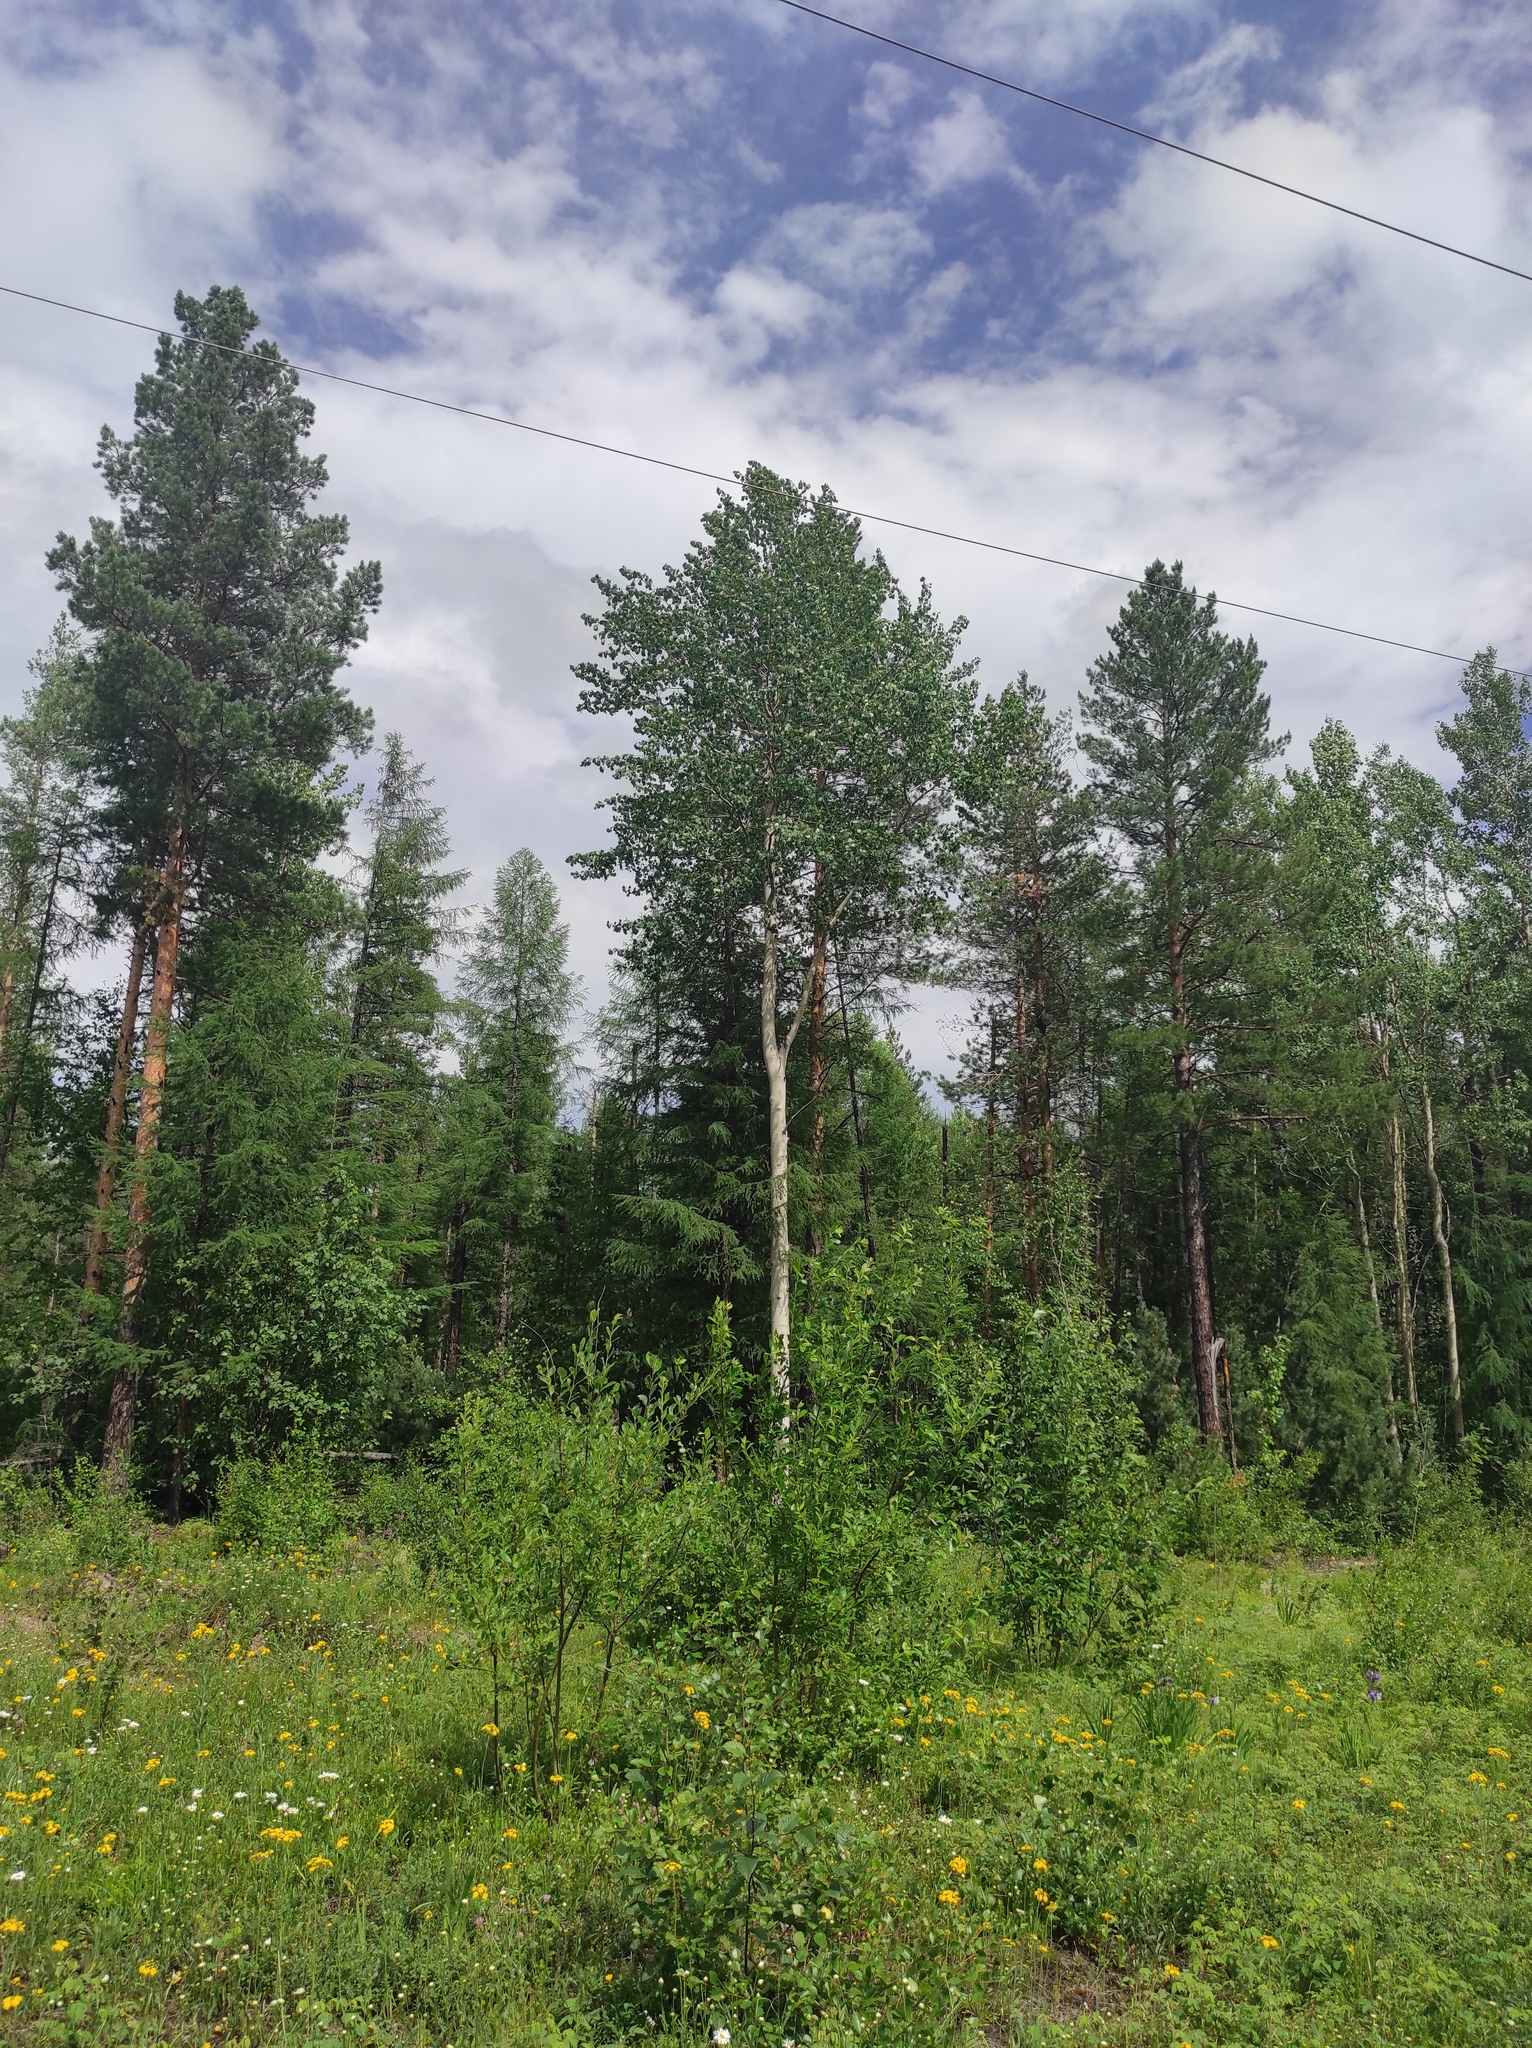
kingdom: Plantae
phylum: Tracheophyta
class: Pinopsida
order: Pinales
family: Pinaceae
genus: Pinus
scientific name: Pinus sylvestris
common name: Scots pine
